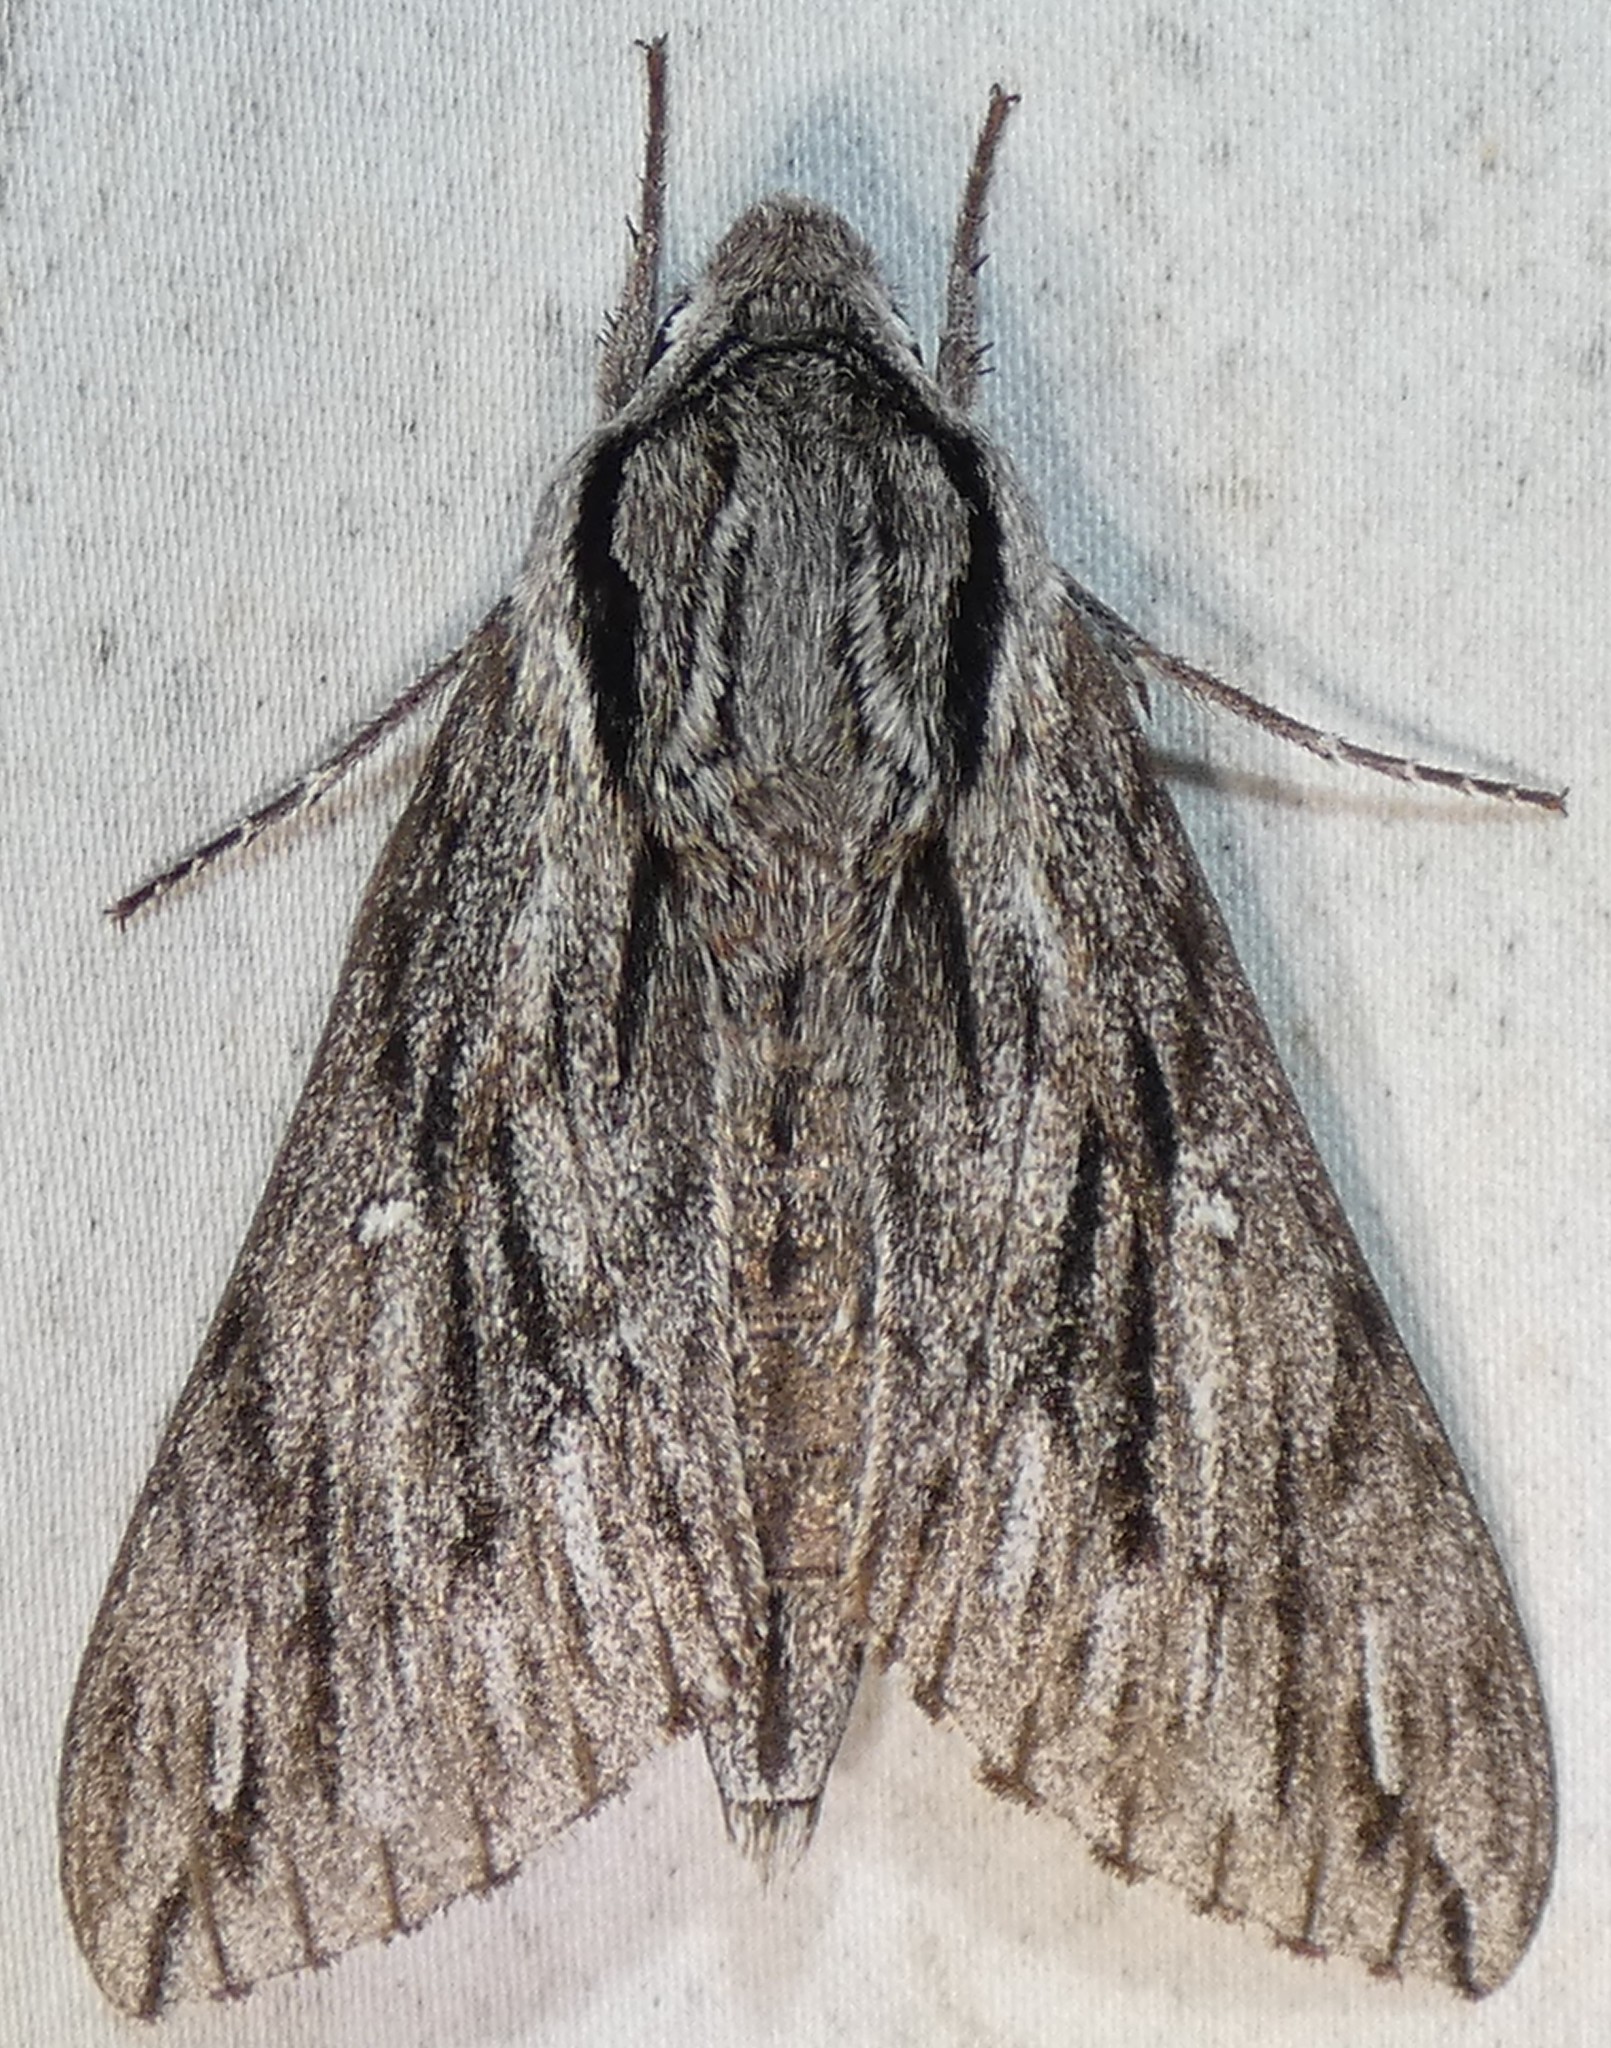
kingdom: Animalia
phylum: Arthropoda
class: Insecta
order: Lepidoptera
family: Sphingidae
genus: Paratrea
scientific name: Paratrea plebeja
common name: Plebian sphinx
